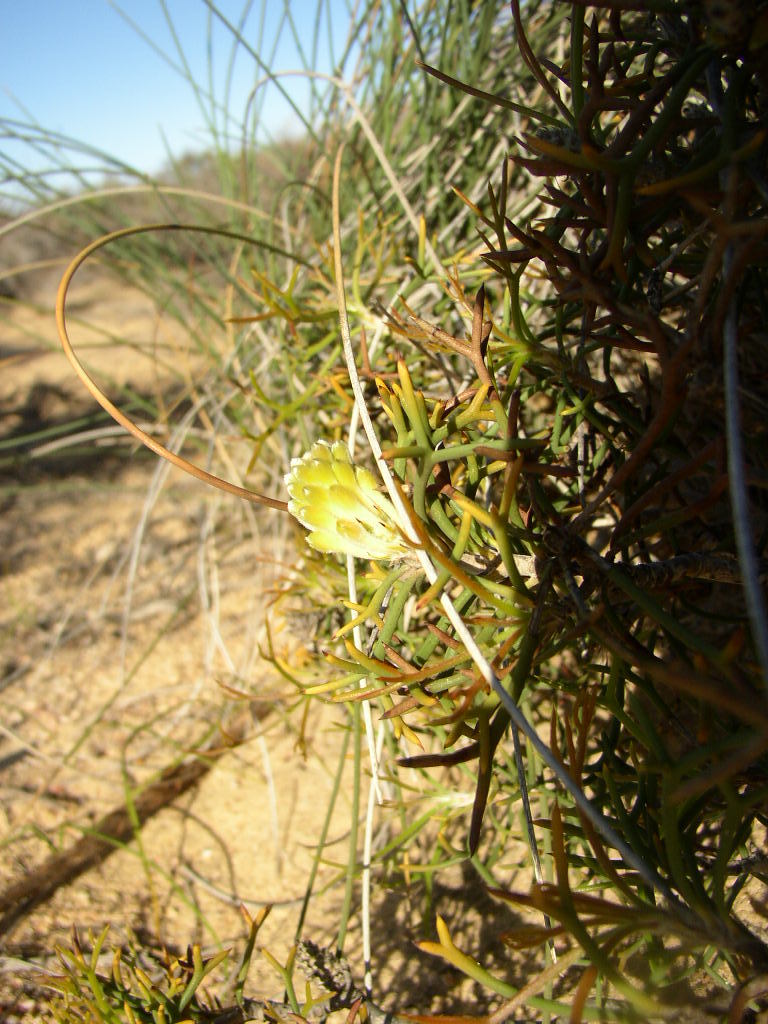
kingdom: Plantae
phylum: Tracheophyta
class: Magnoliopsida
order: Proteales
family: Proteaceae
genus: Petrophile
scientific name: Petrophile foremanii
